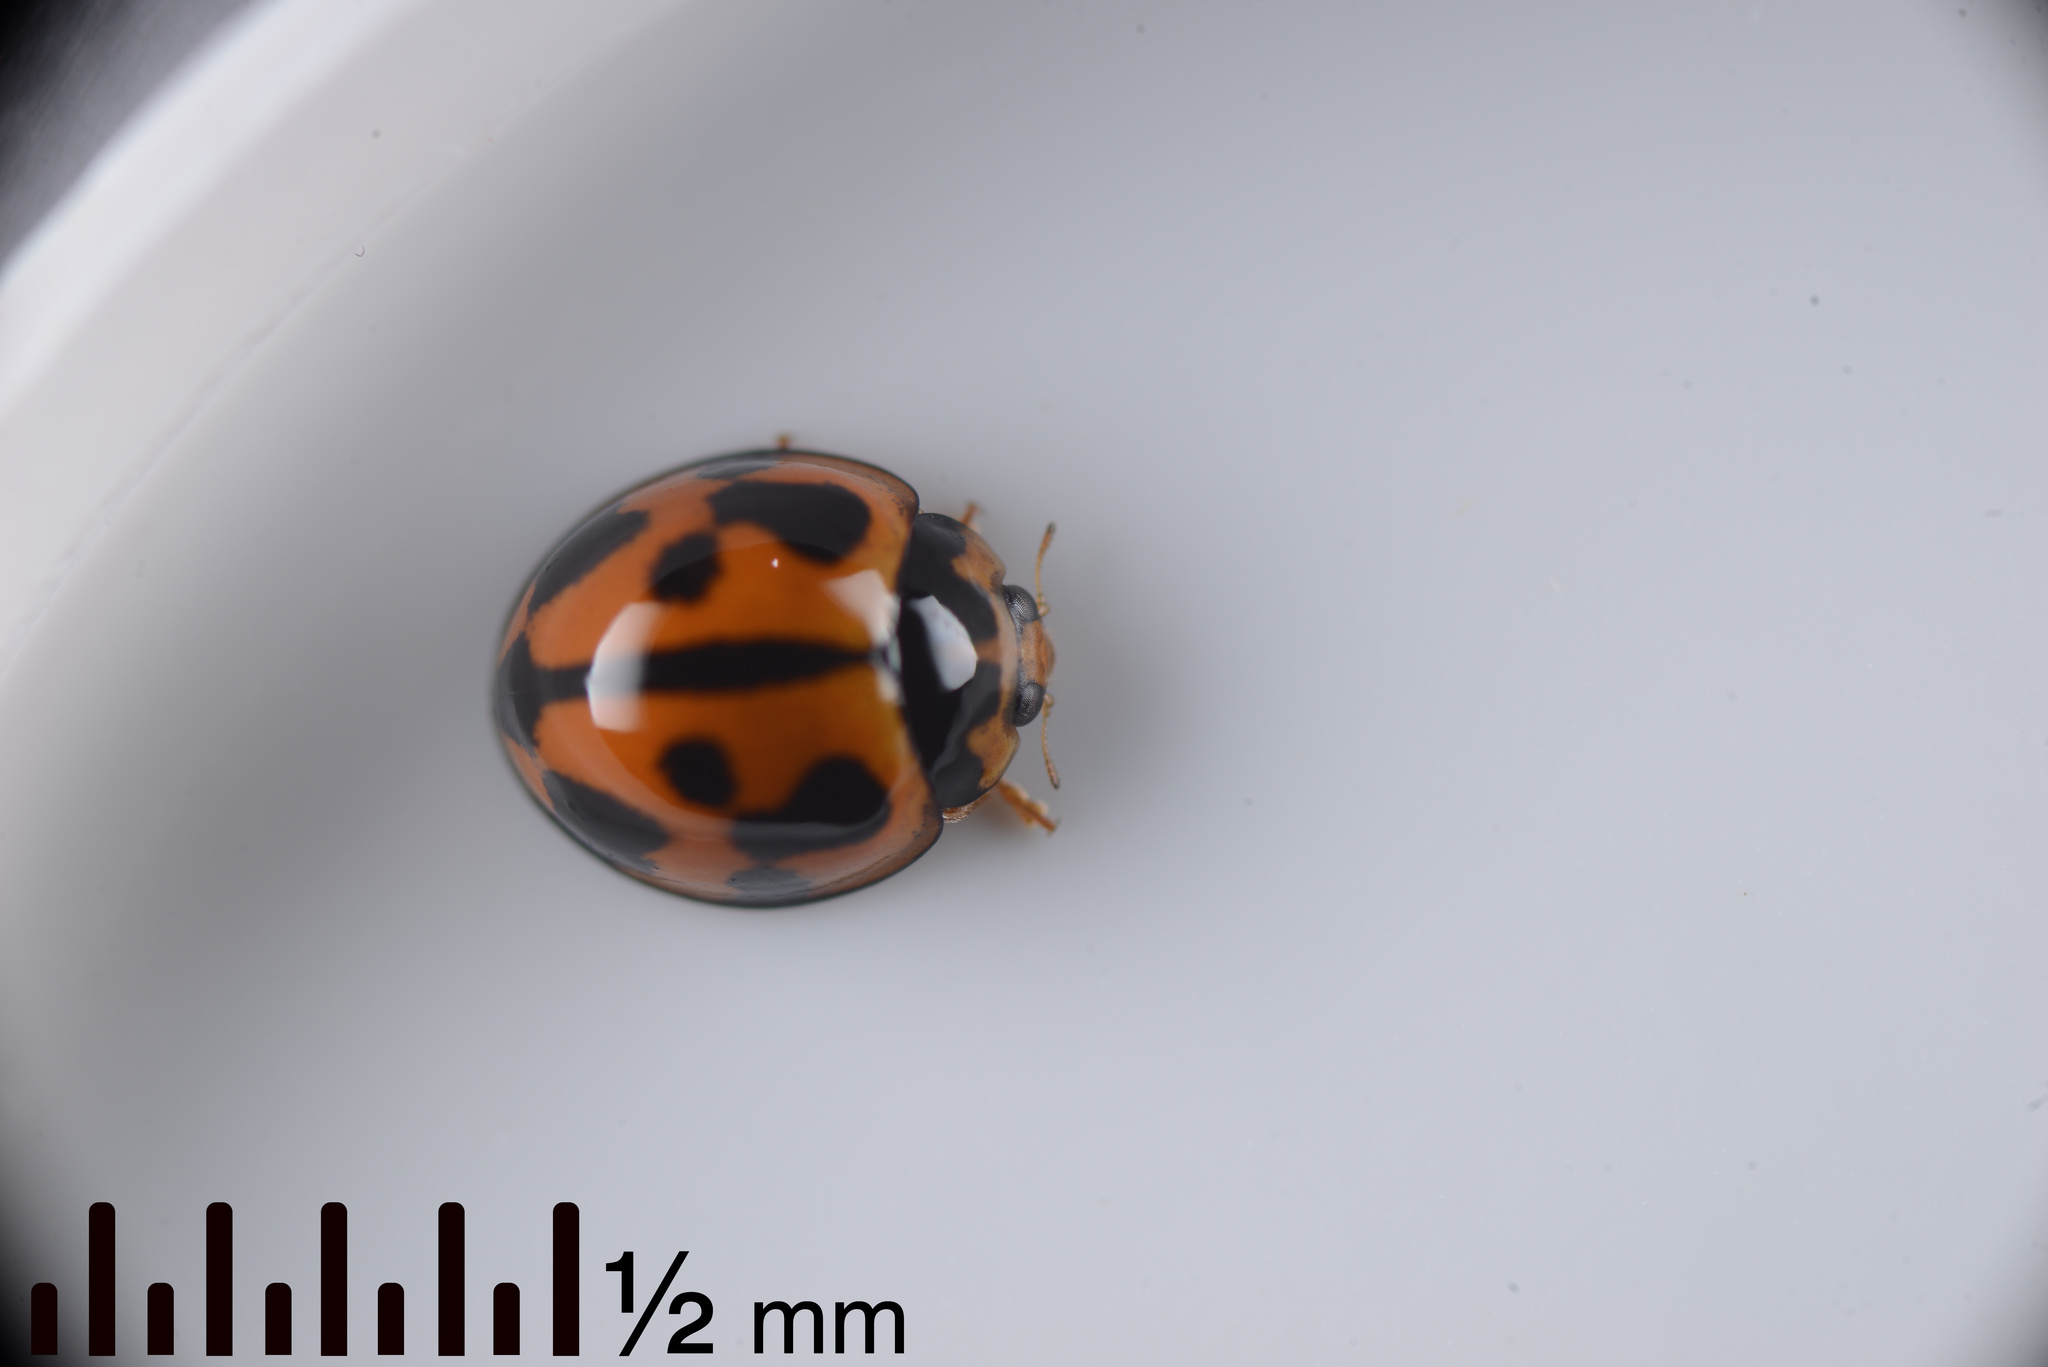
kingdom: Animalia
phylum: Arthropoda
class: Insecta
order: Coleoptera
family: Coccinellidae
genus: Coelophora
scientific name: Coelophora inaequalis
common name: Common australian lady beetle
